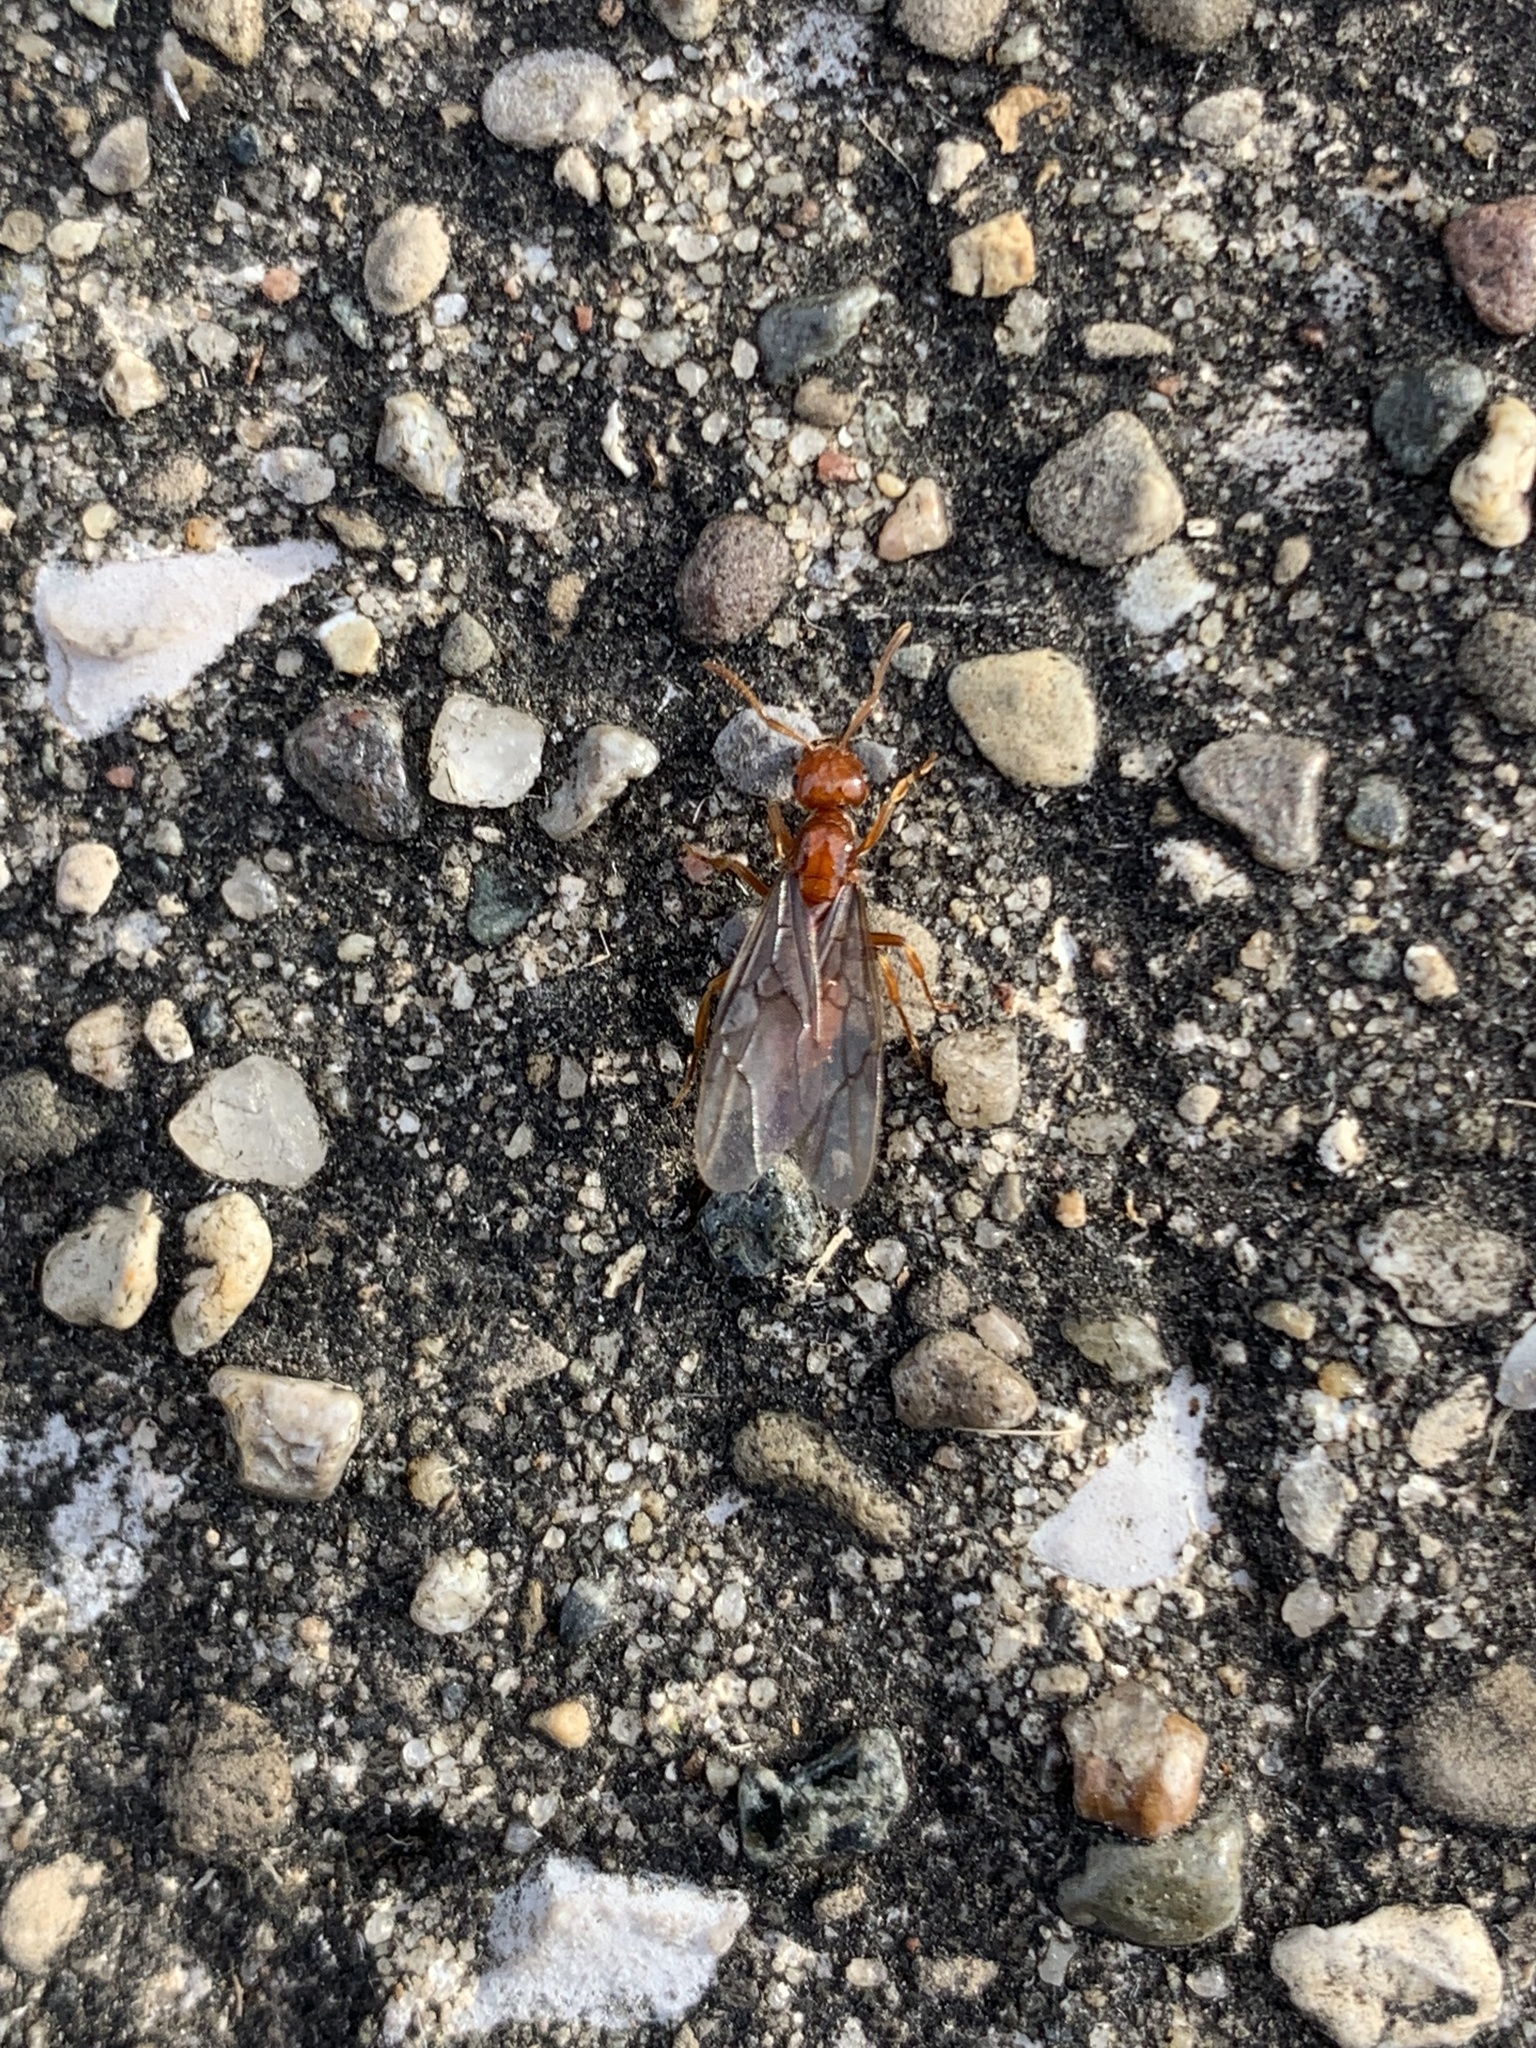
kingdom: Animalia
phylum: Arthropoda
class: Insecta
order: Hymenoptera
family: Formicidae
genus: Acanthomyops
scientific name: Acanthomyops interjectus
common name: Larger yellow ant
